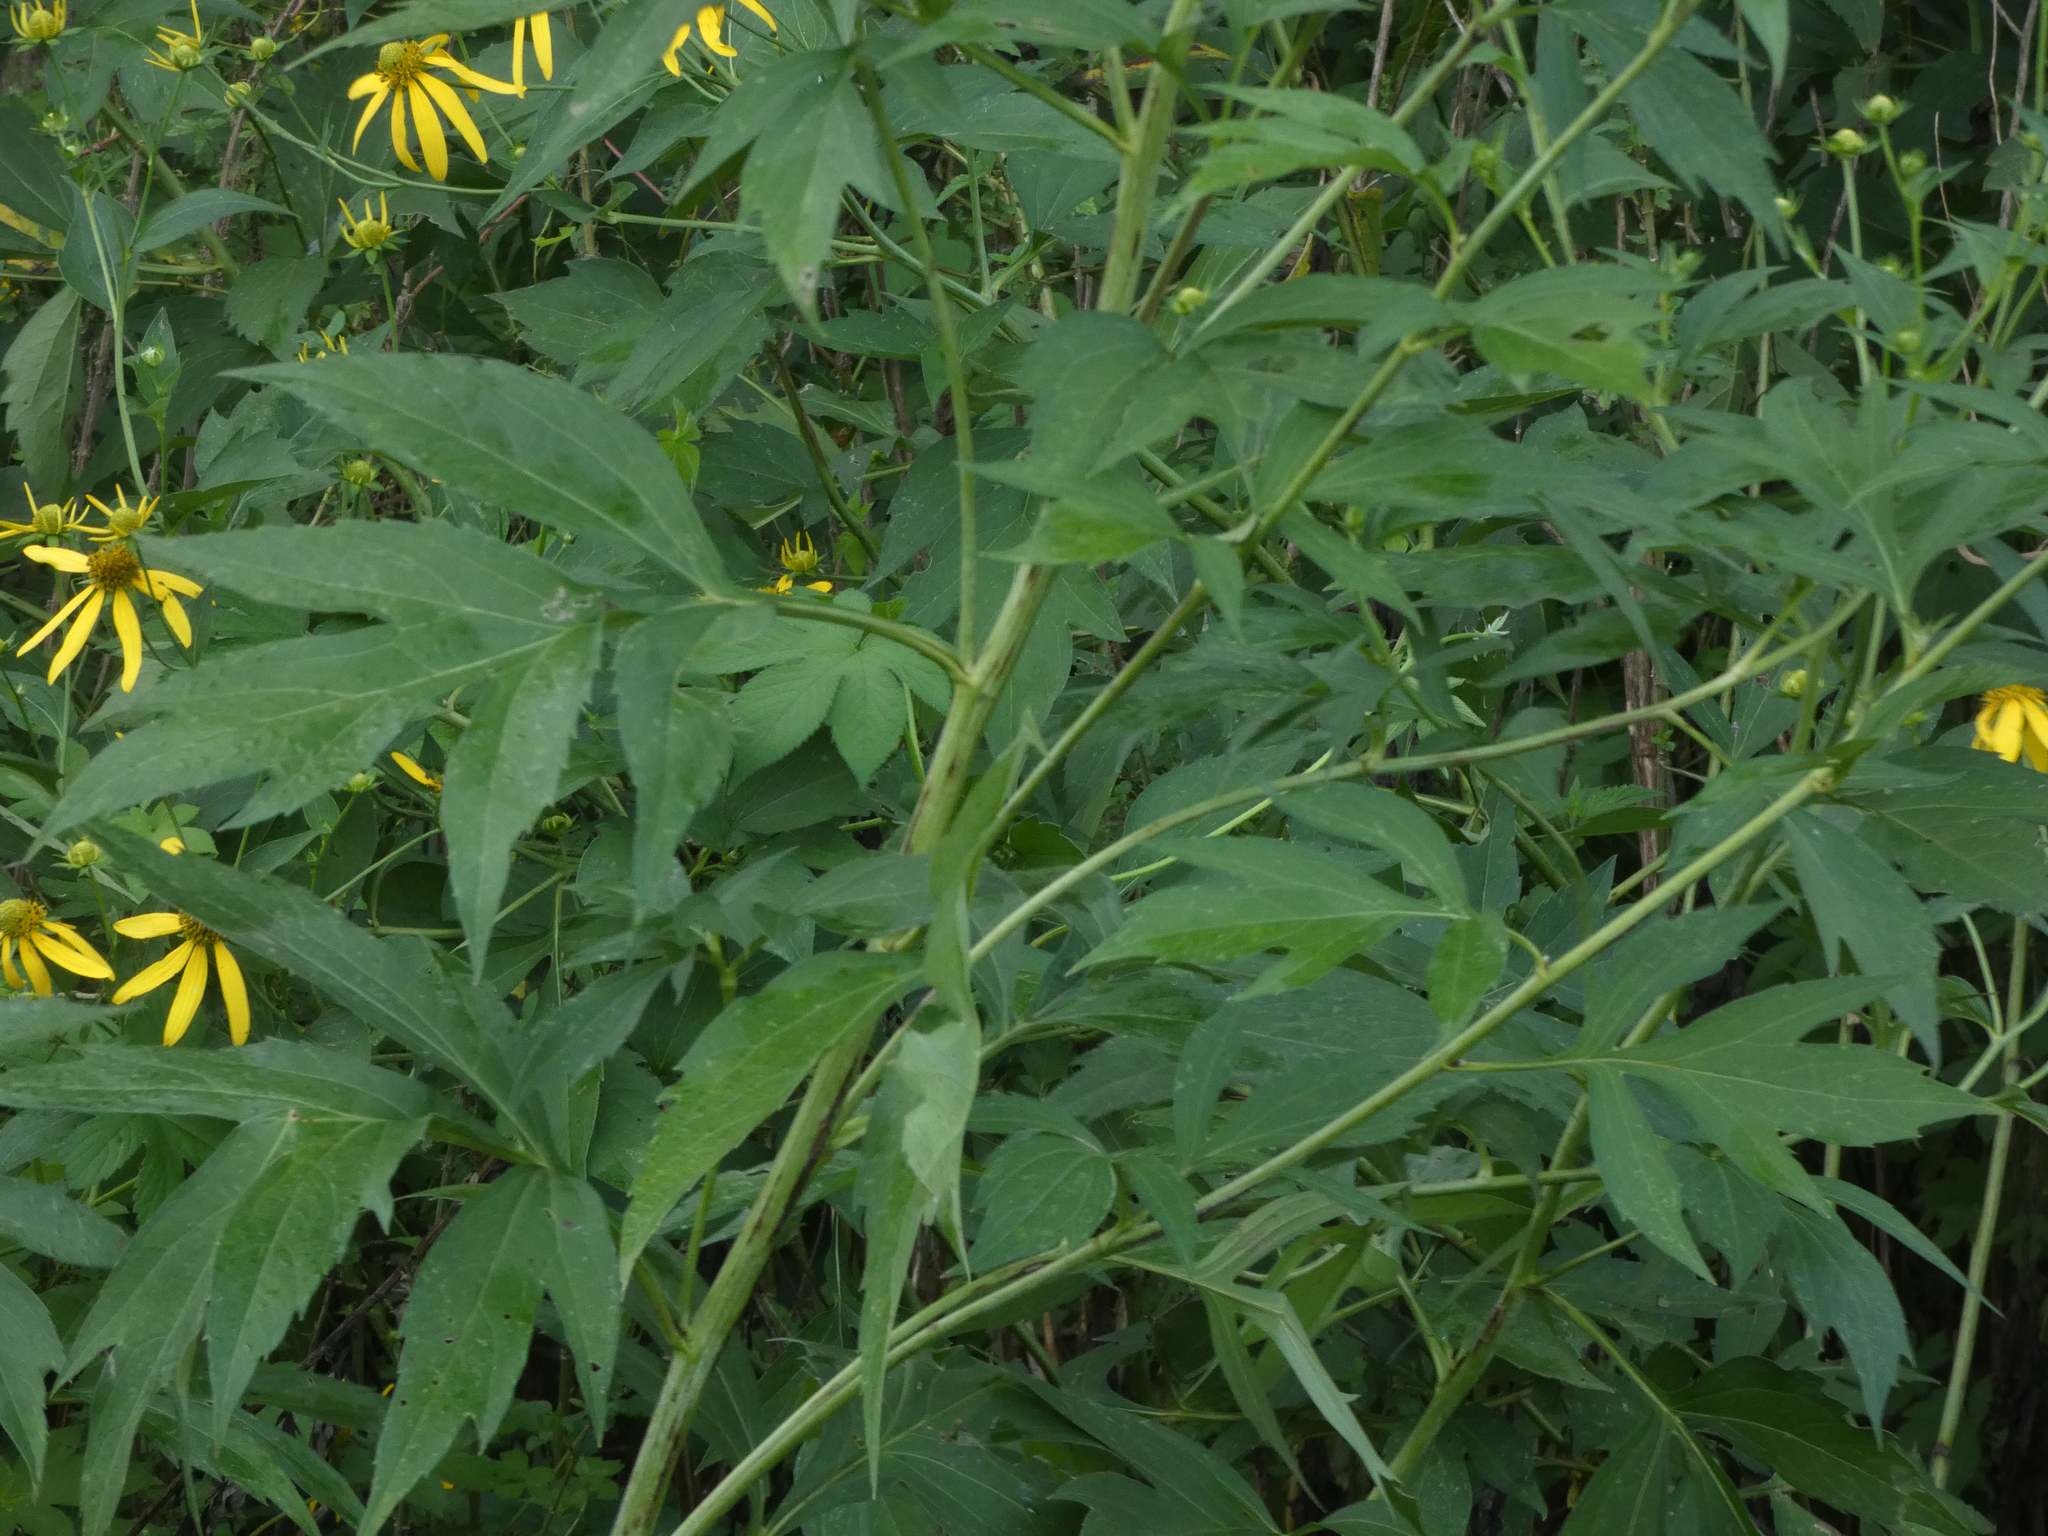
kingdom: Plantae
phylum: Tracheophyta
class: Magnoliopsida
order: Asterales
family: Asteraceae
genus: Rudbeckia
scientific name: Rudbeckia laciniata
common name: Coneflower
